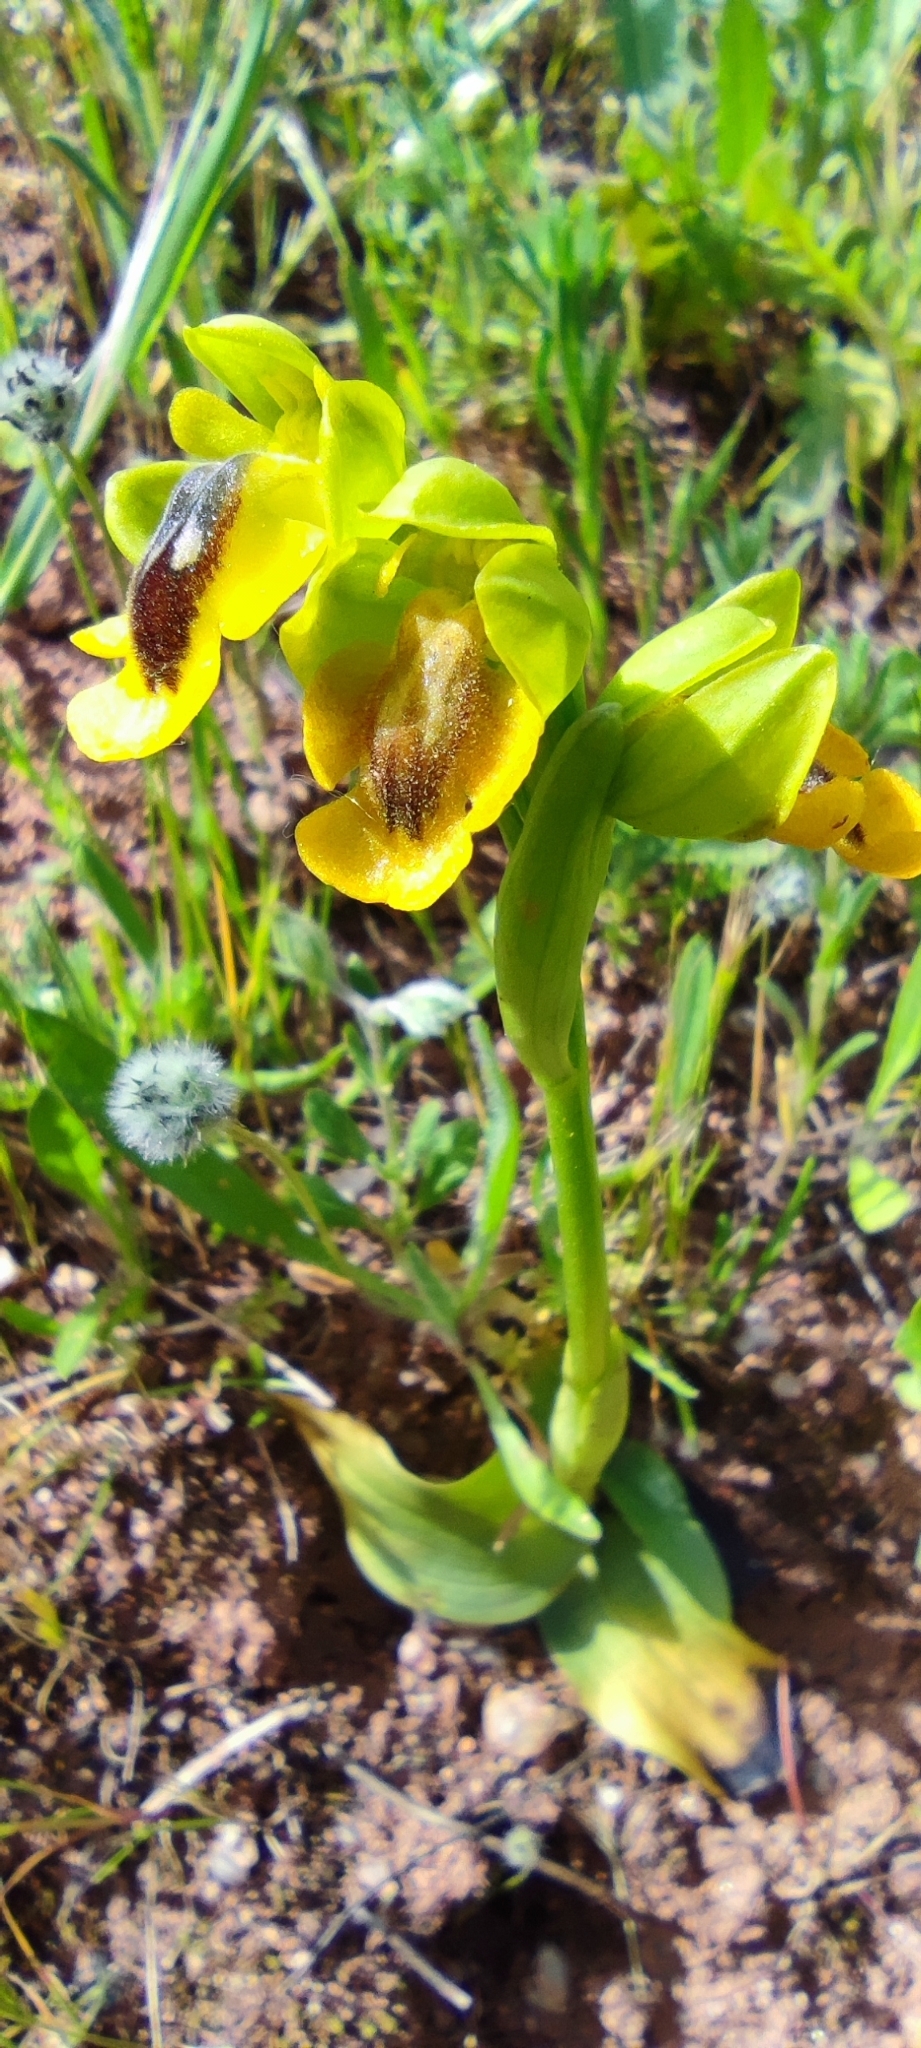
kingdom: Plantae
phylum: Tracheophyta
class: Liliopsida
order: Asparagales
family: Orchidaceae
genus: Ophrys
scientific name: Ophrys lutea
